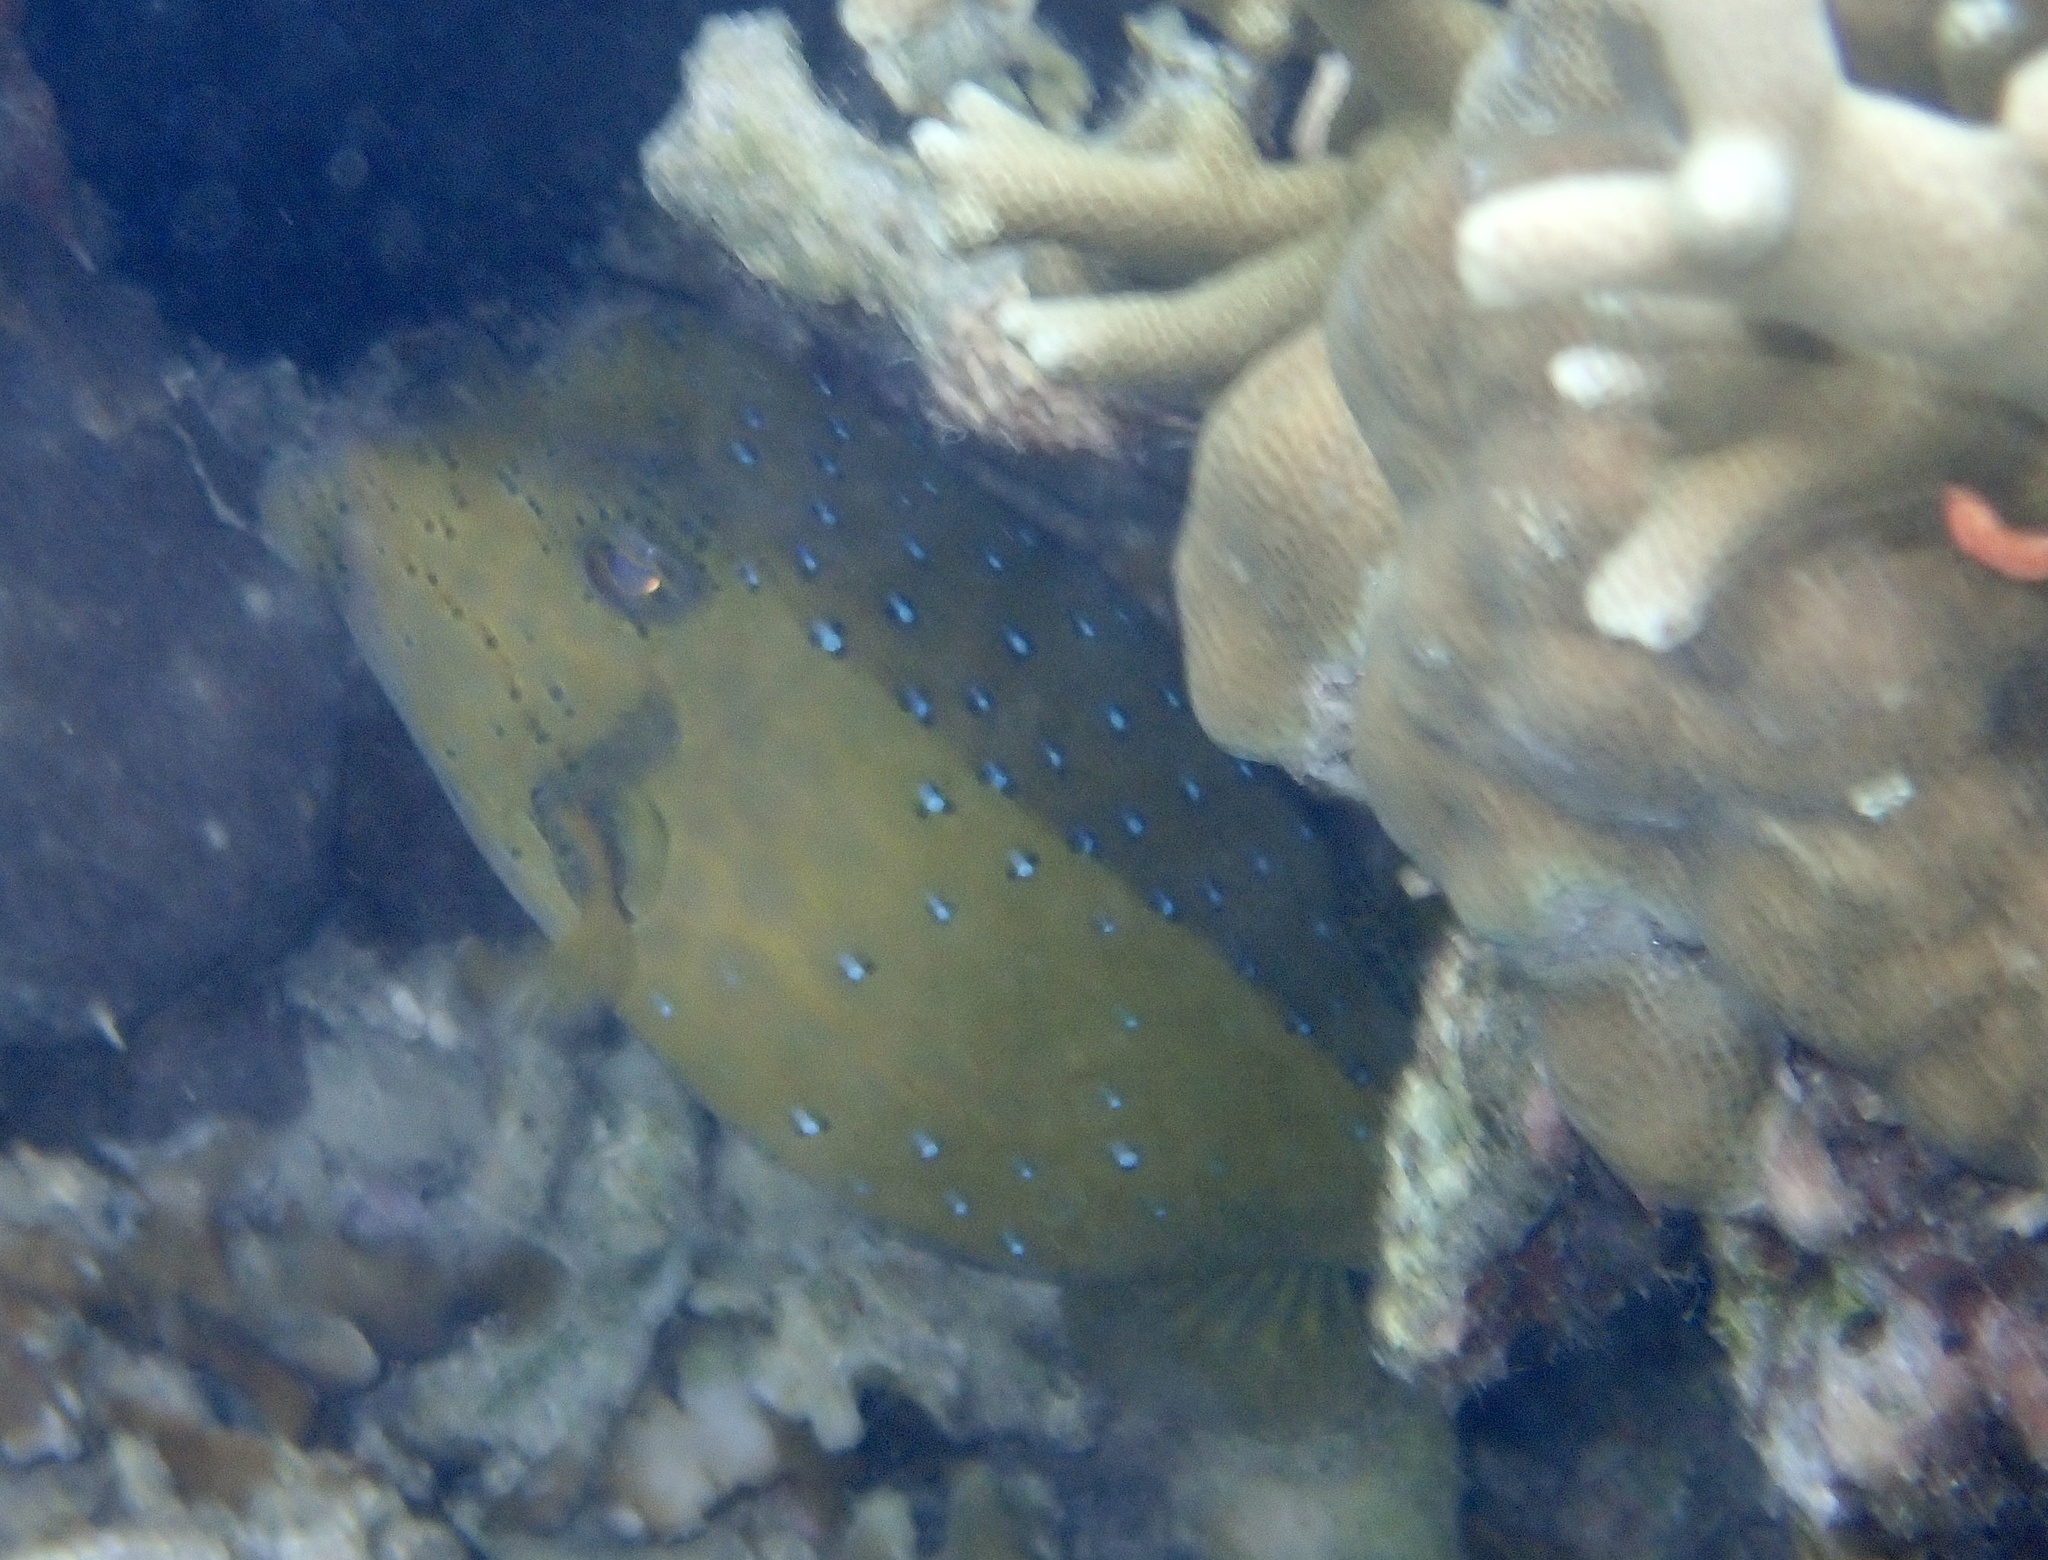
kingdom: Animalia
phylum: Chordata
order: Tetraodontiformes
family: Ostraciidae
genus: Ostracion
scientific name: Ostracion cubicus
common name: Cube trunkfish
